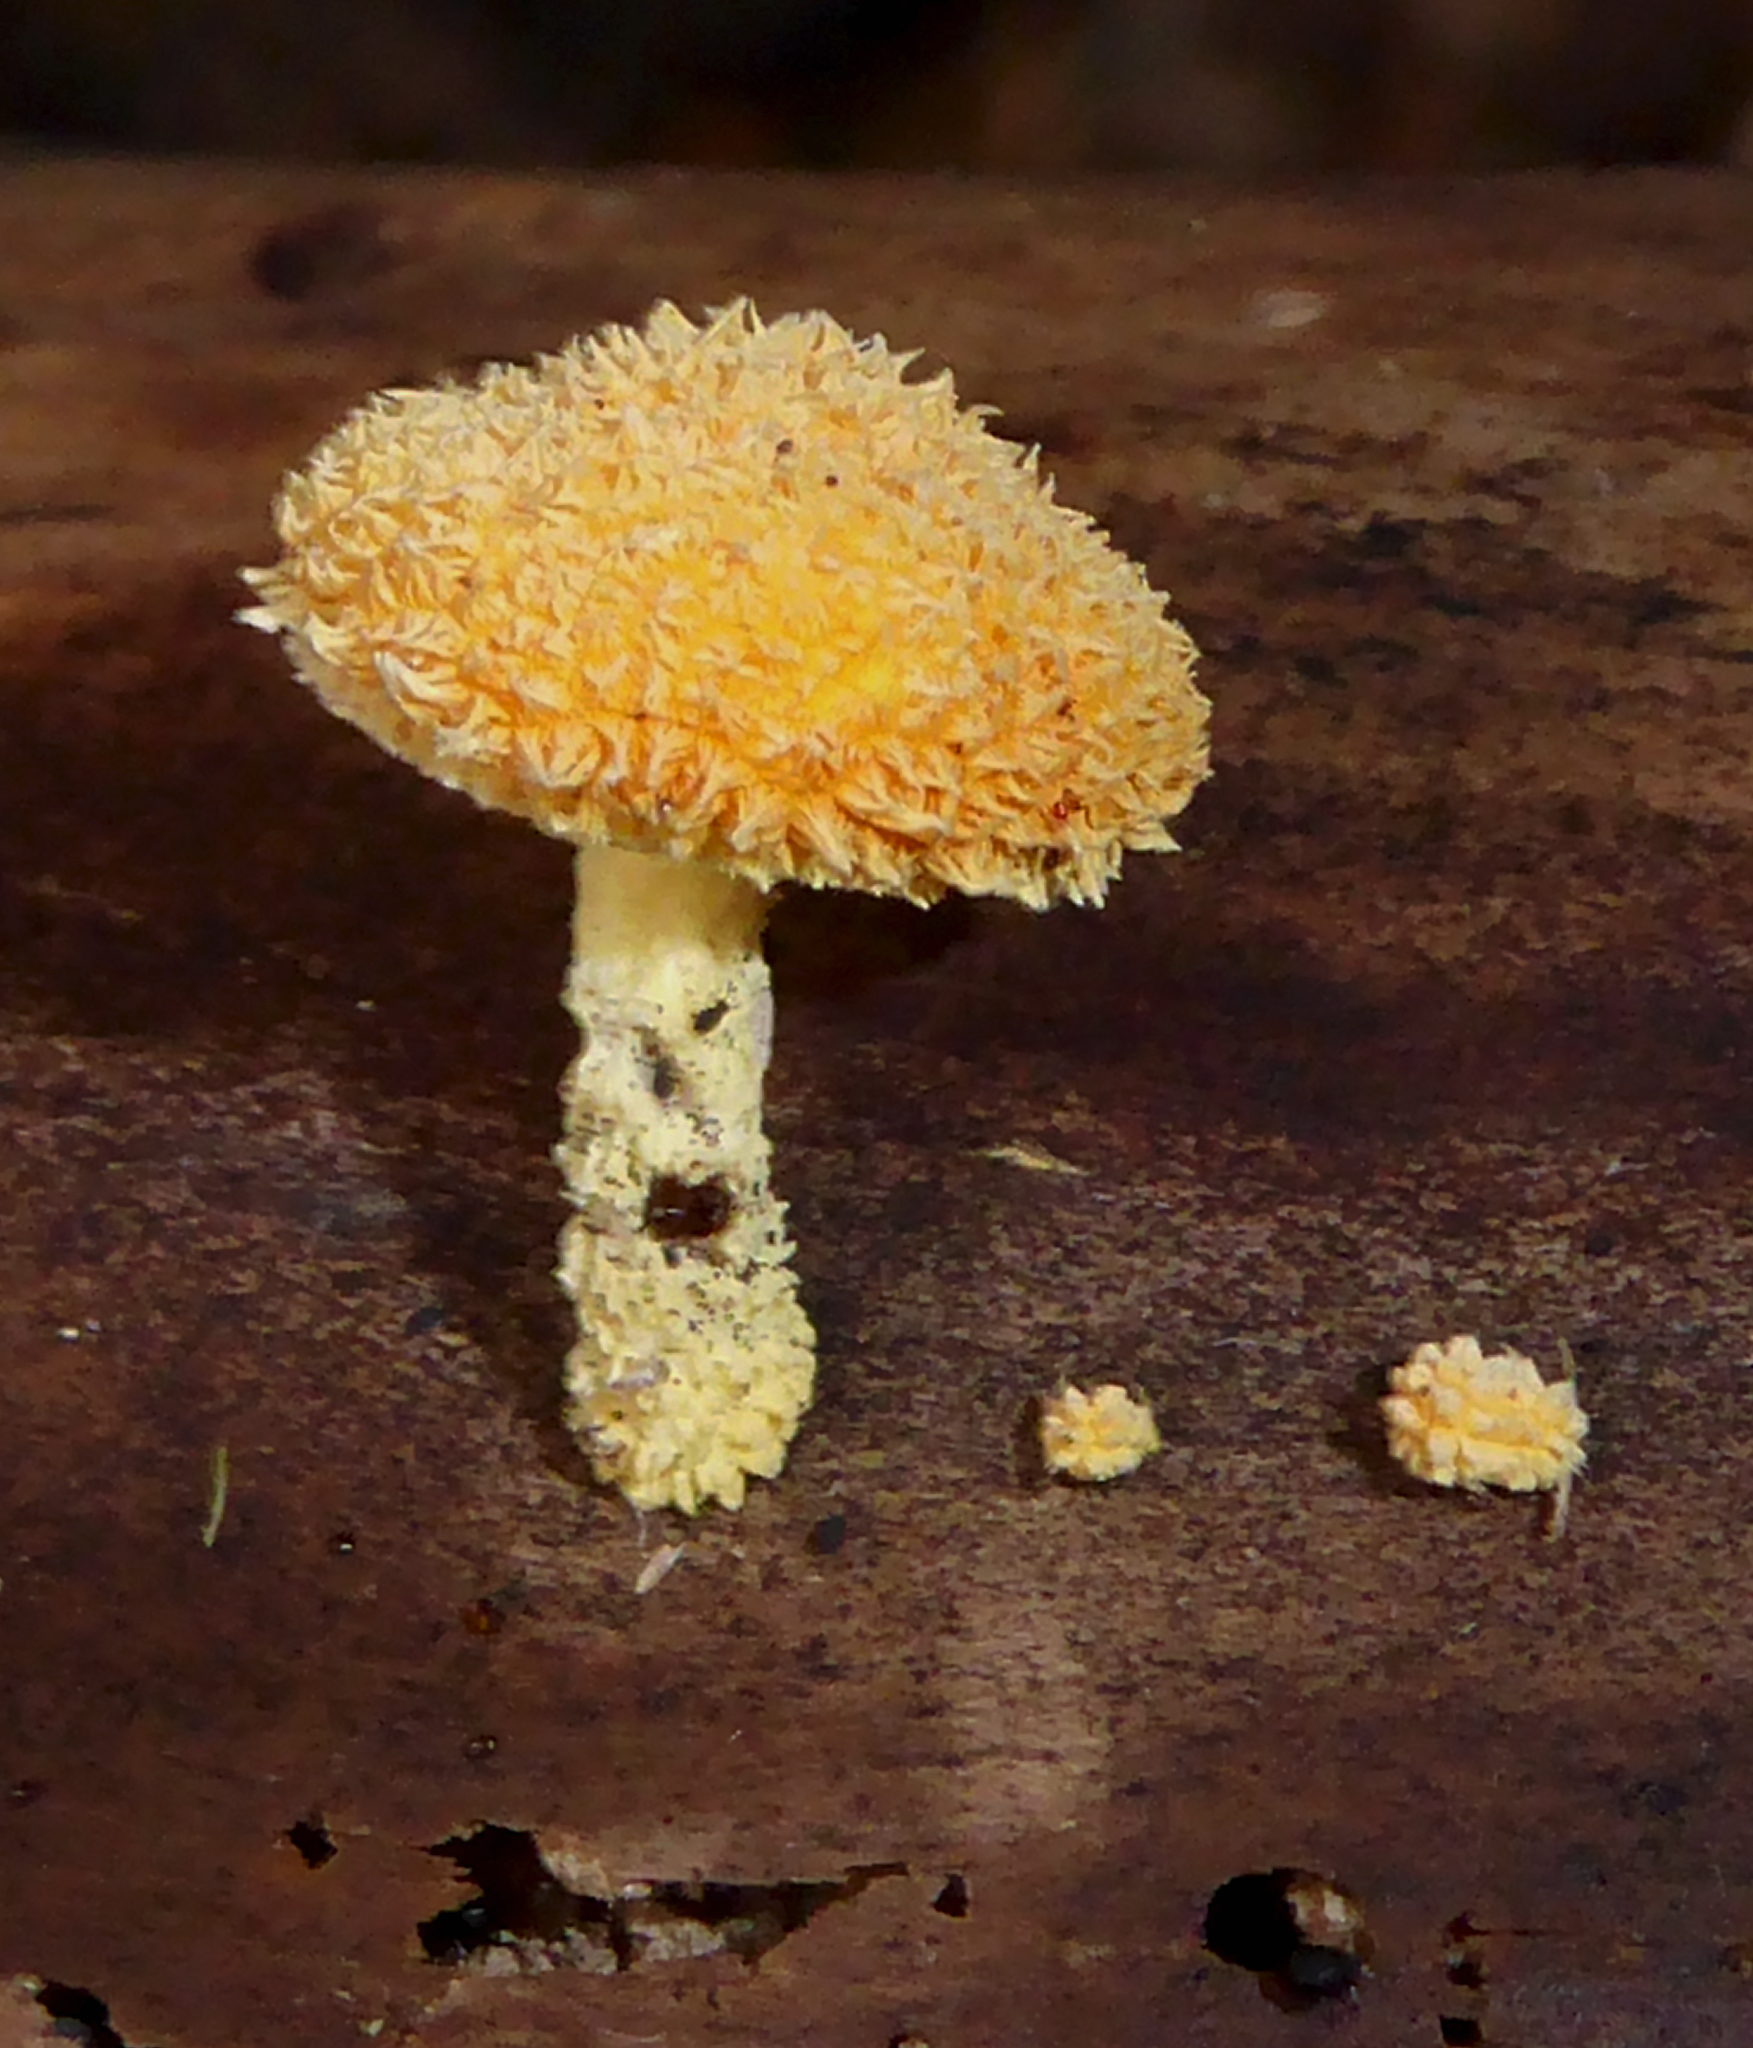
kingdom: Fungi
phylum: Basidiomycota
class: Agaricomycetes
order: Agaricales
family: Physalacriaceae
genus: Cyptotrama
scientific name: Cyptotrama asprata
